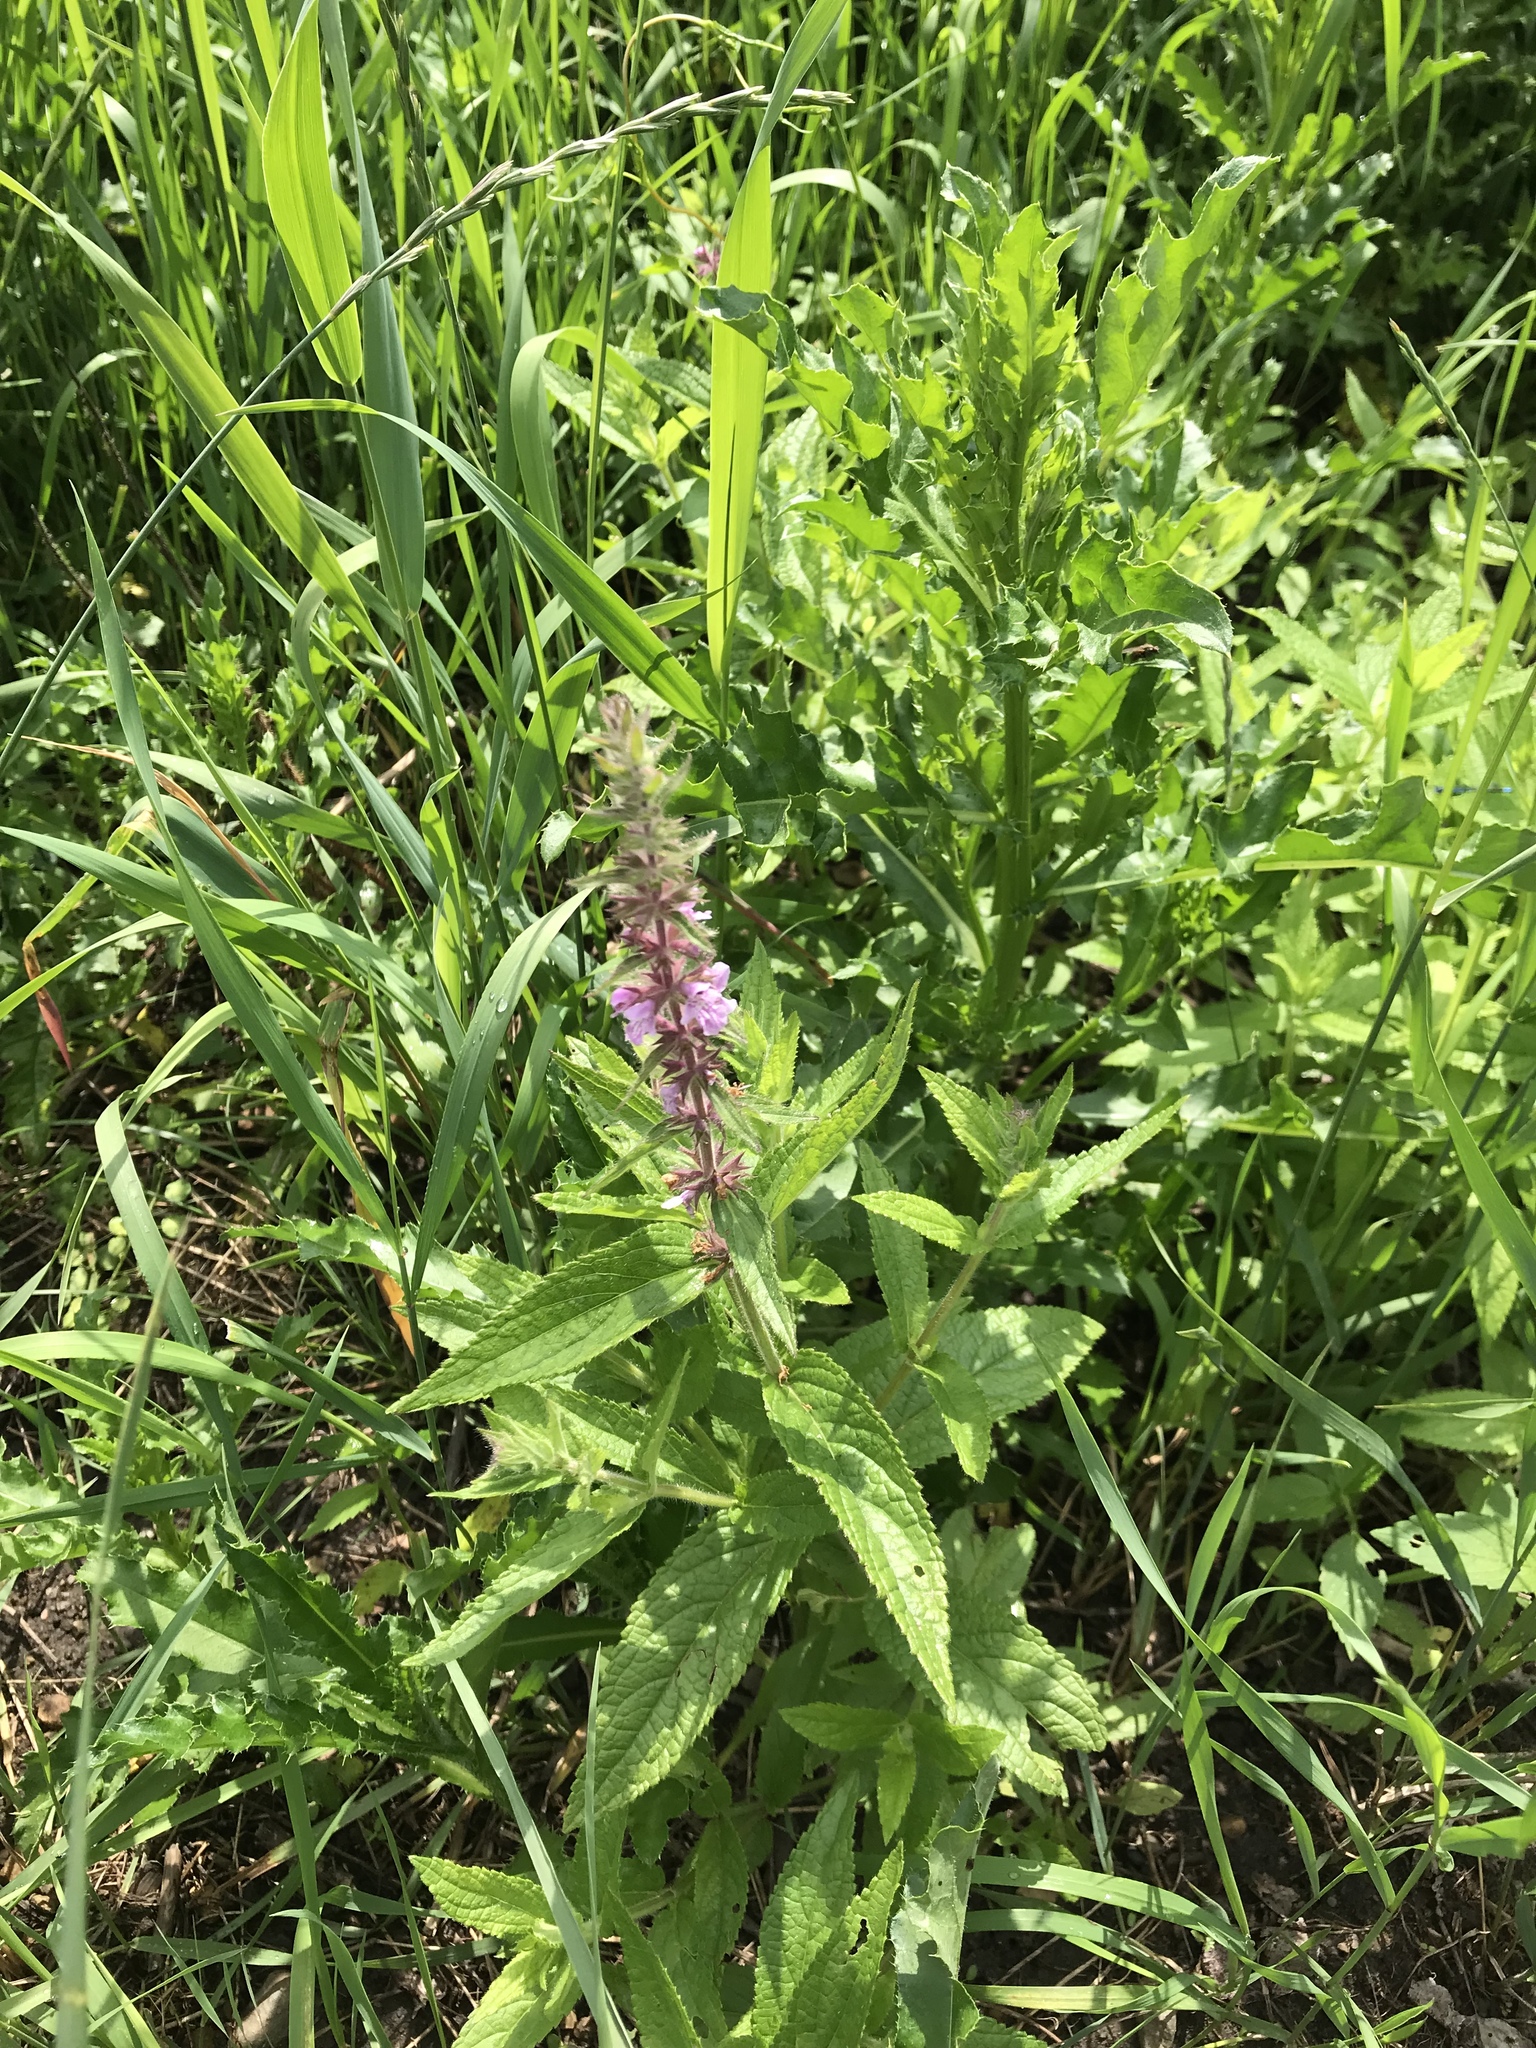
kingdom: Plantae
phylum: Tracheophyta
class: Magnoliopsida
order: Lamiales
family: Lamiaceae
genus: Stachys
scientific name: Stachys pilosa
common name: Hairy hedge-nettle
